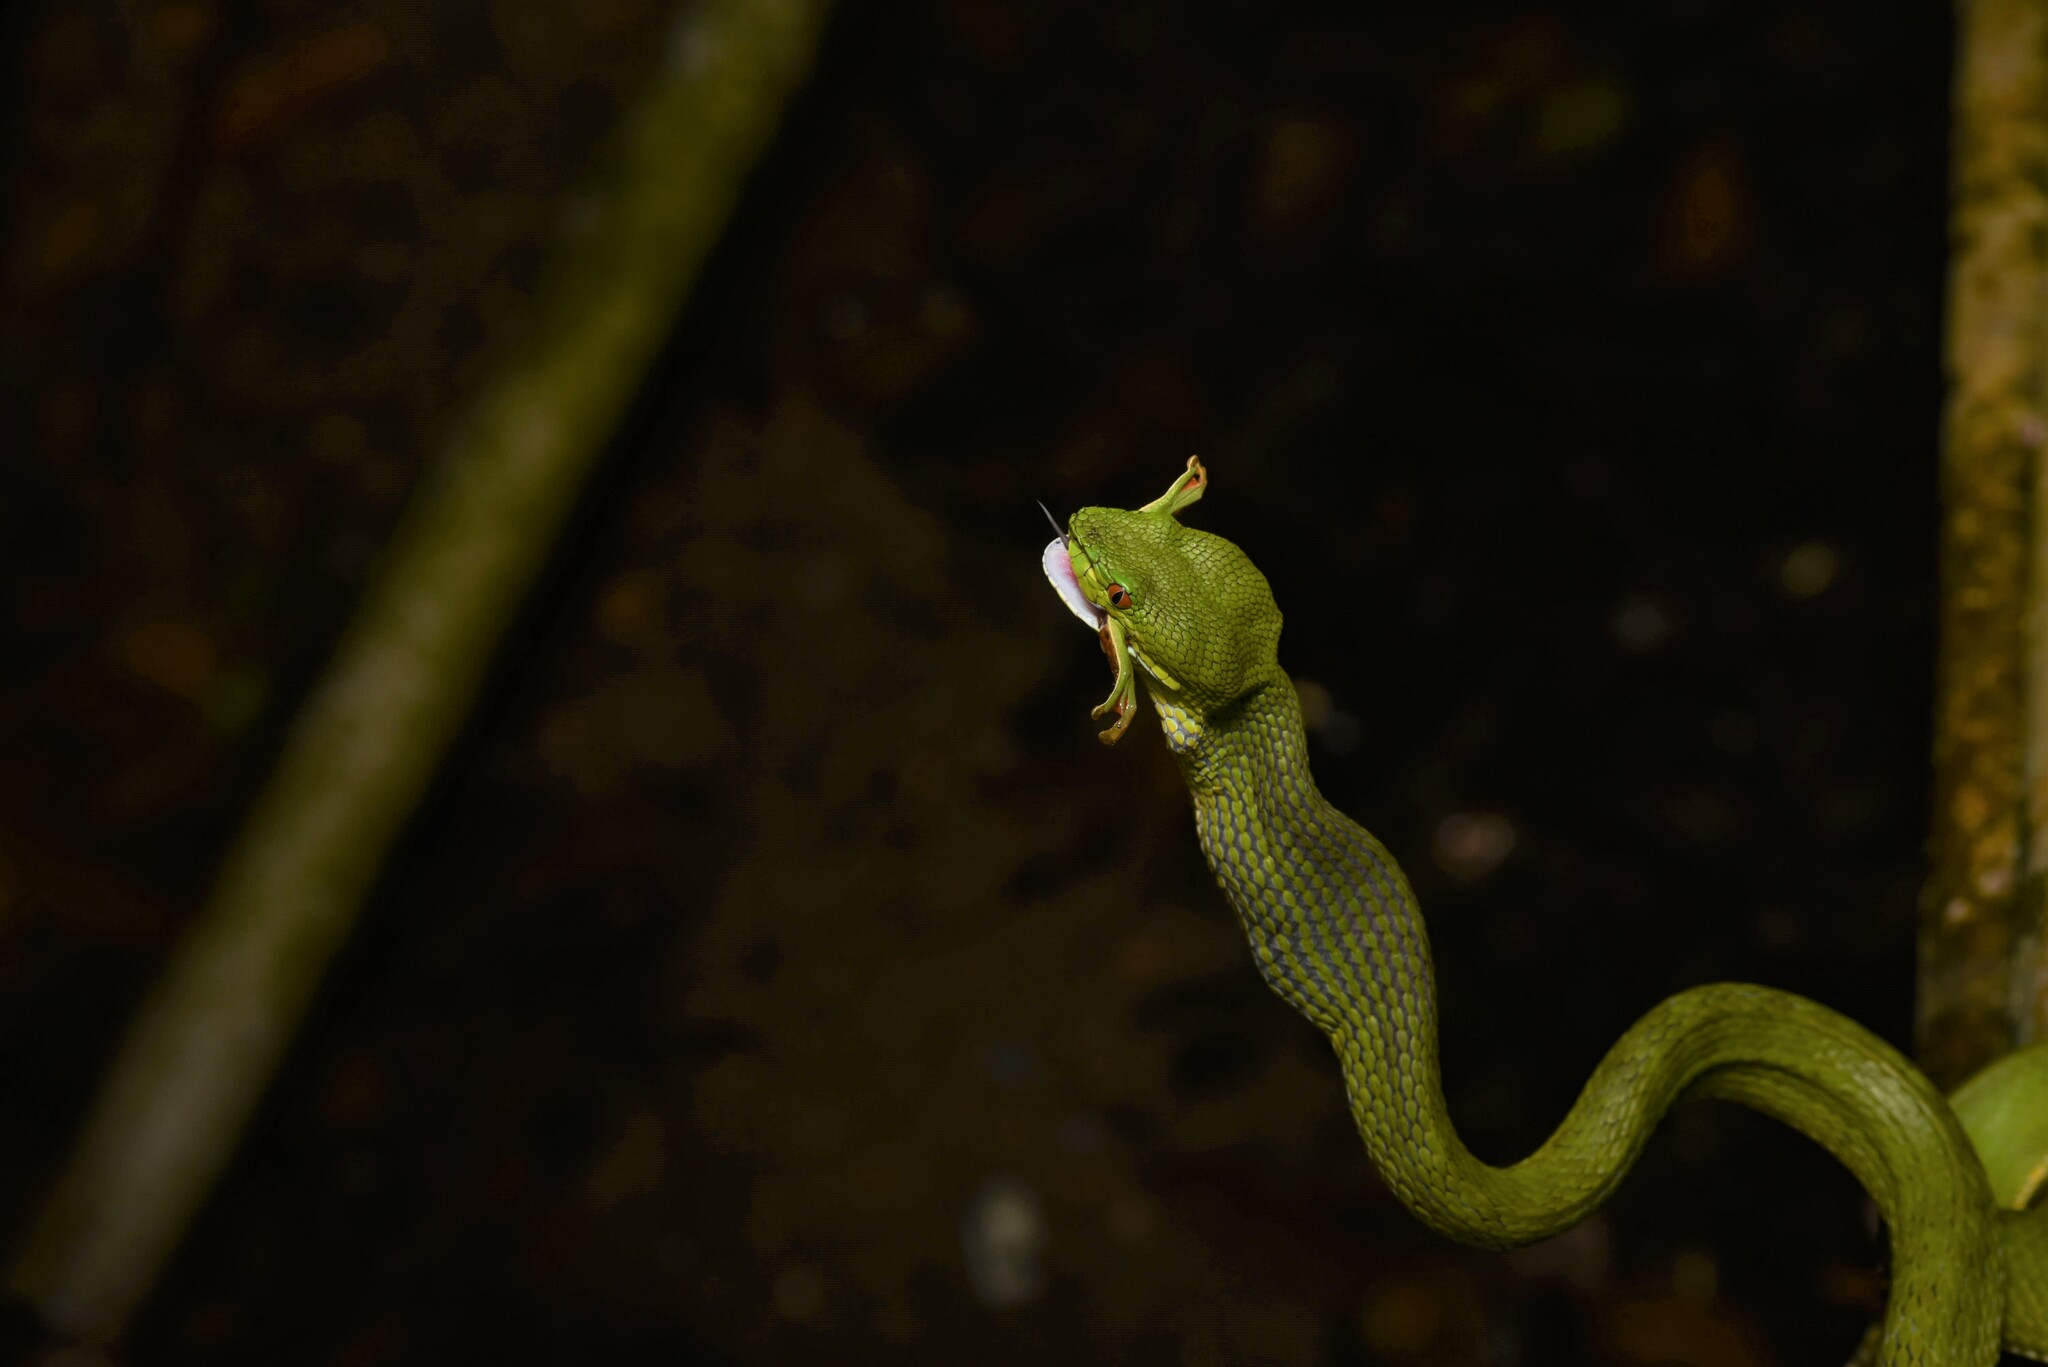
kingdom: Animalia
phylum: Chordata
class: Squamata
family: Viperidae
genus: Trimeresurus
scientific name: Trimeresurus stejnegeri
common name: Chen’s bamboo pit viper
